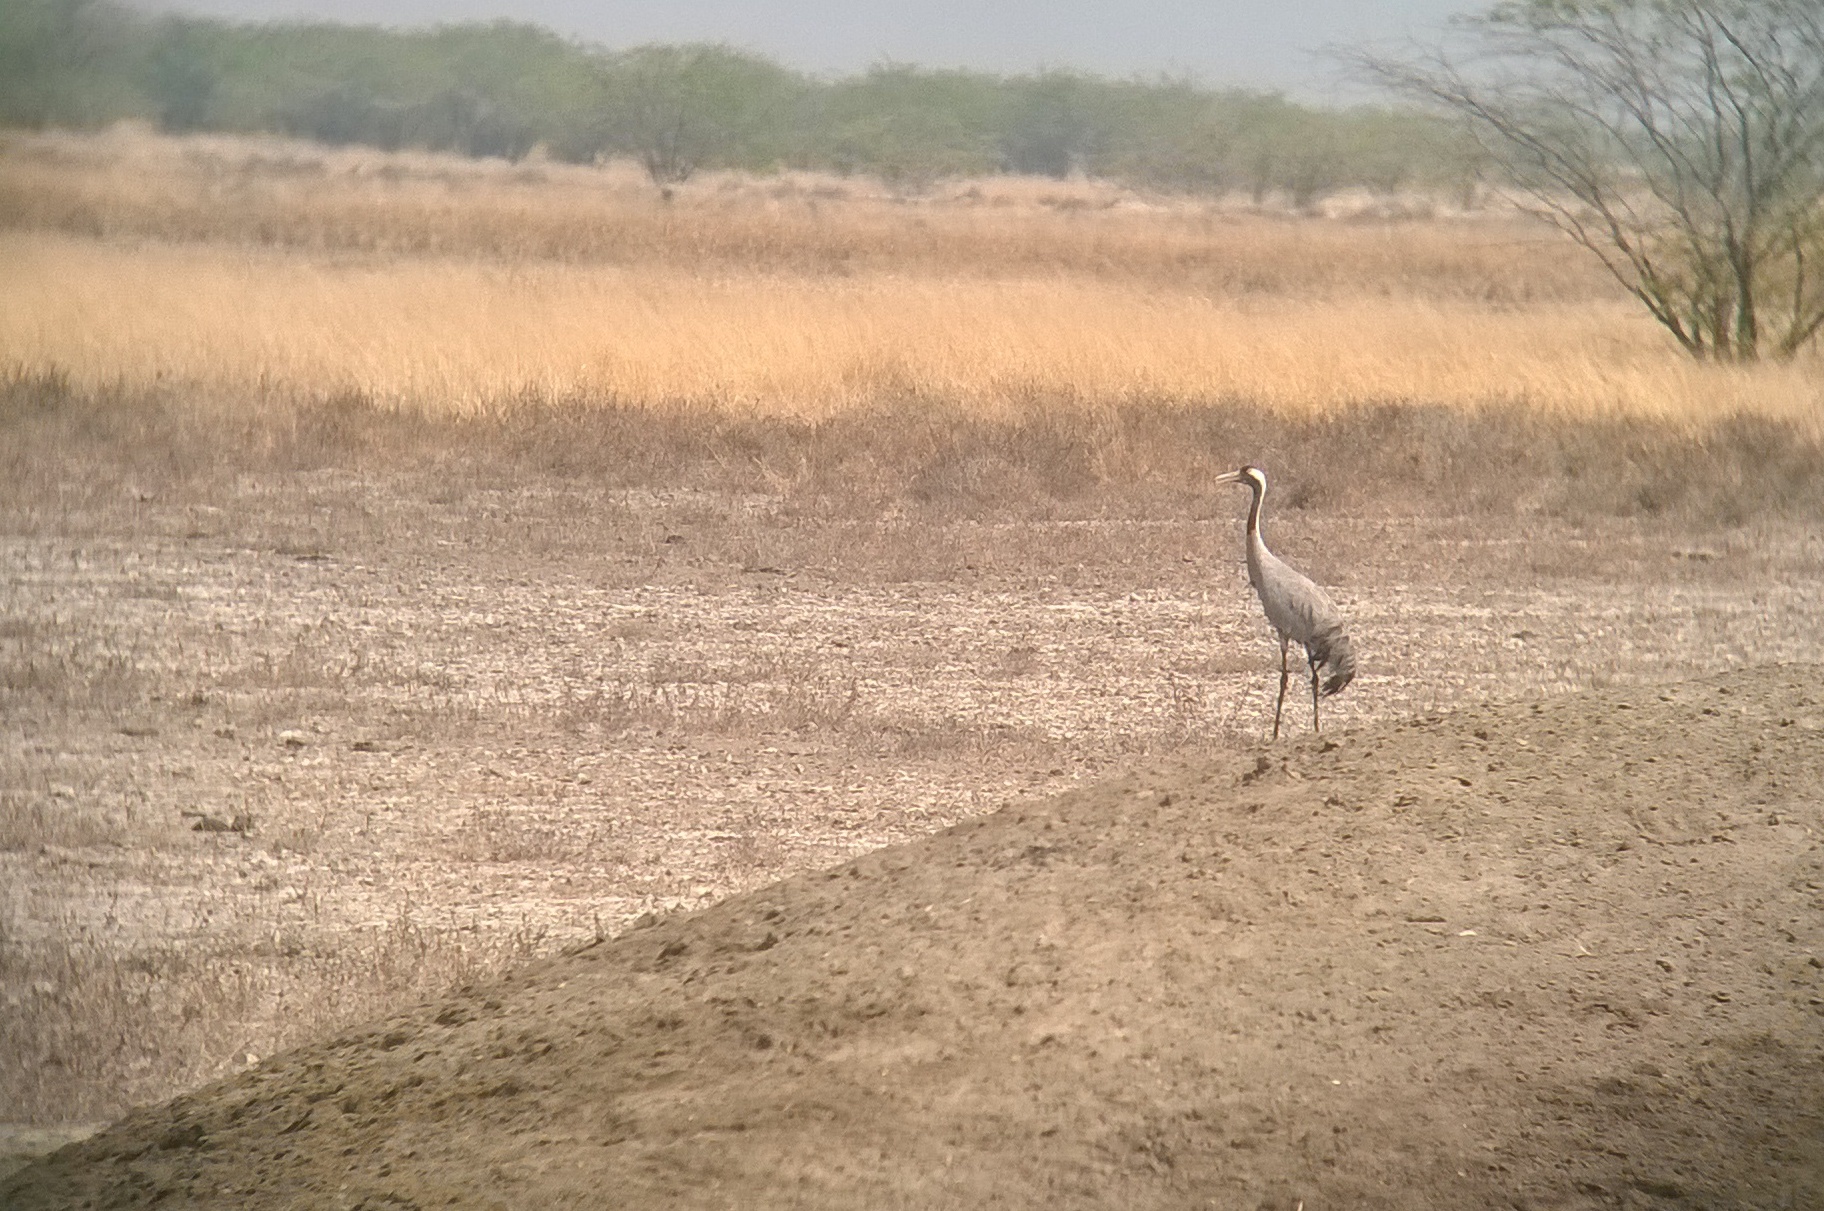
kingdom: Animalia
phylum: Chordata
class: Aves
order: Gruiformes
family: Gruidae
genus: Grus
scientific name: Grus grus
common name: Common crane
